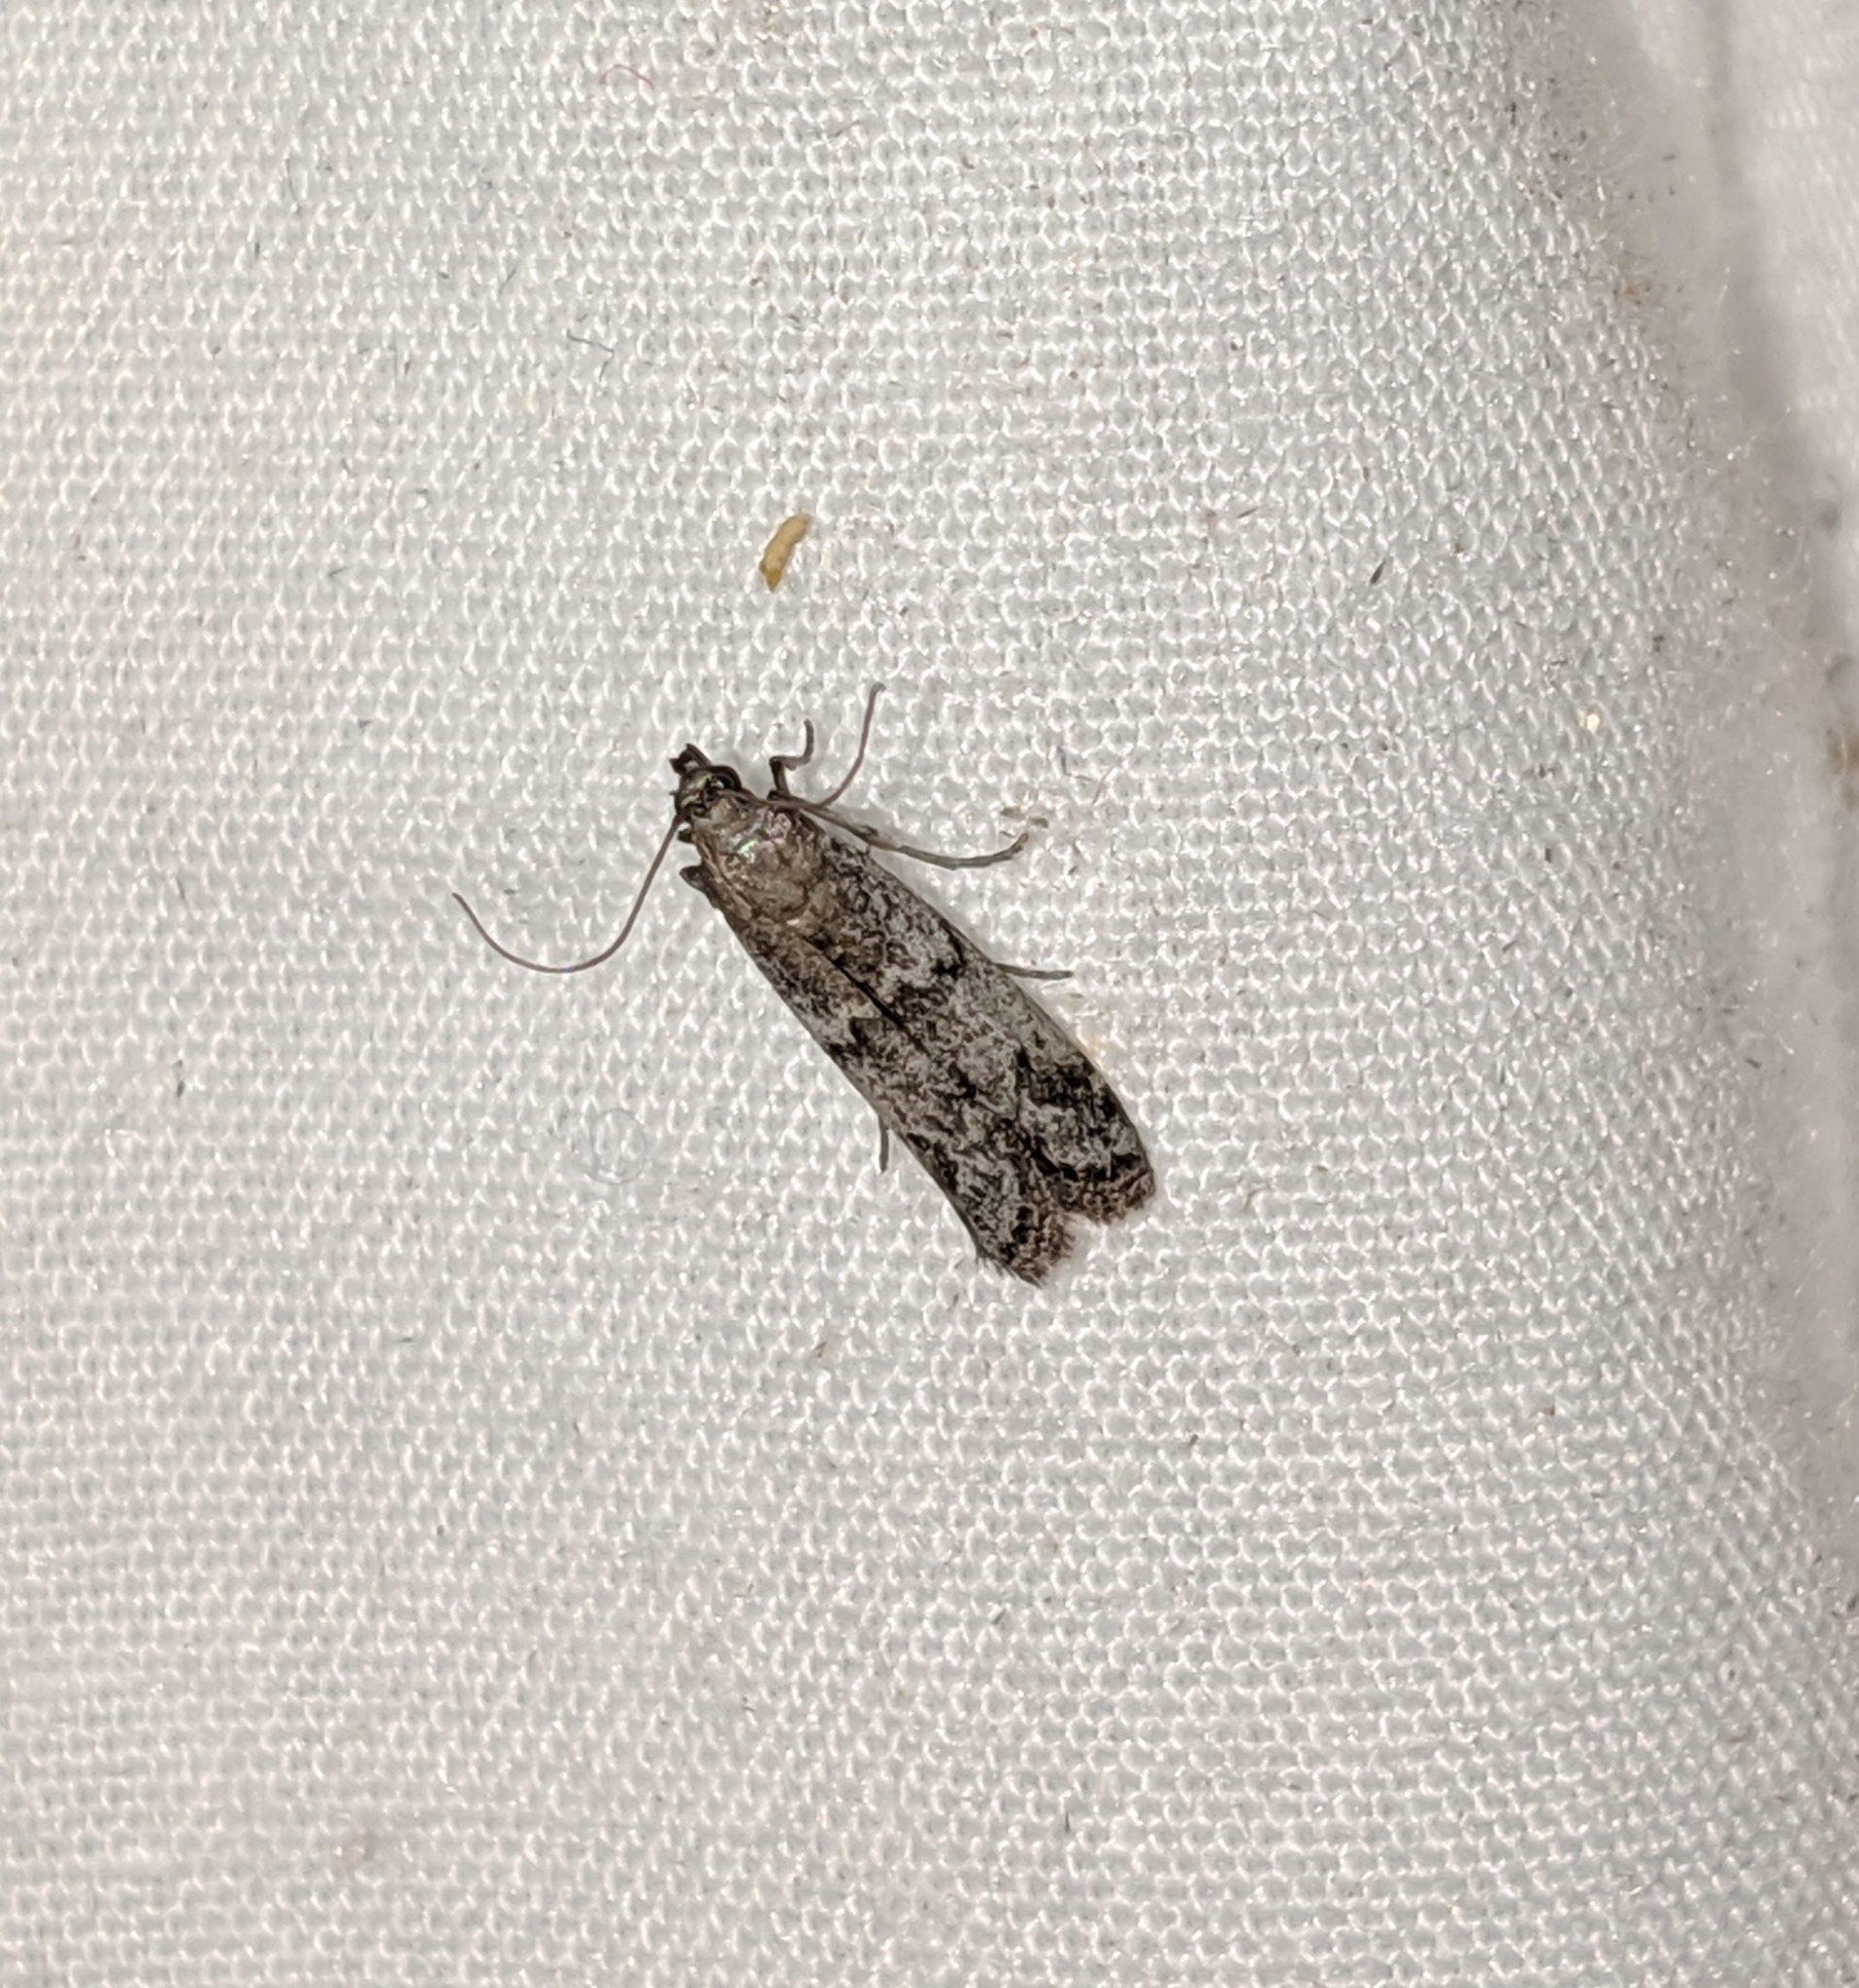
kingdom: Animalia
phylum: Arthropoda
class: Insecta
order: Lepidoptera
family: Pyralidae
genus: Ephestiodes
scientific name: Ephestiodes gilvescentella
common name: Moth
